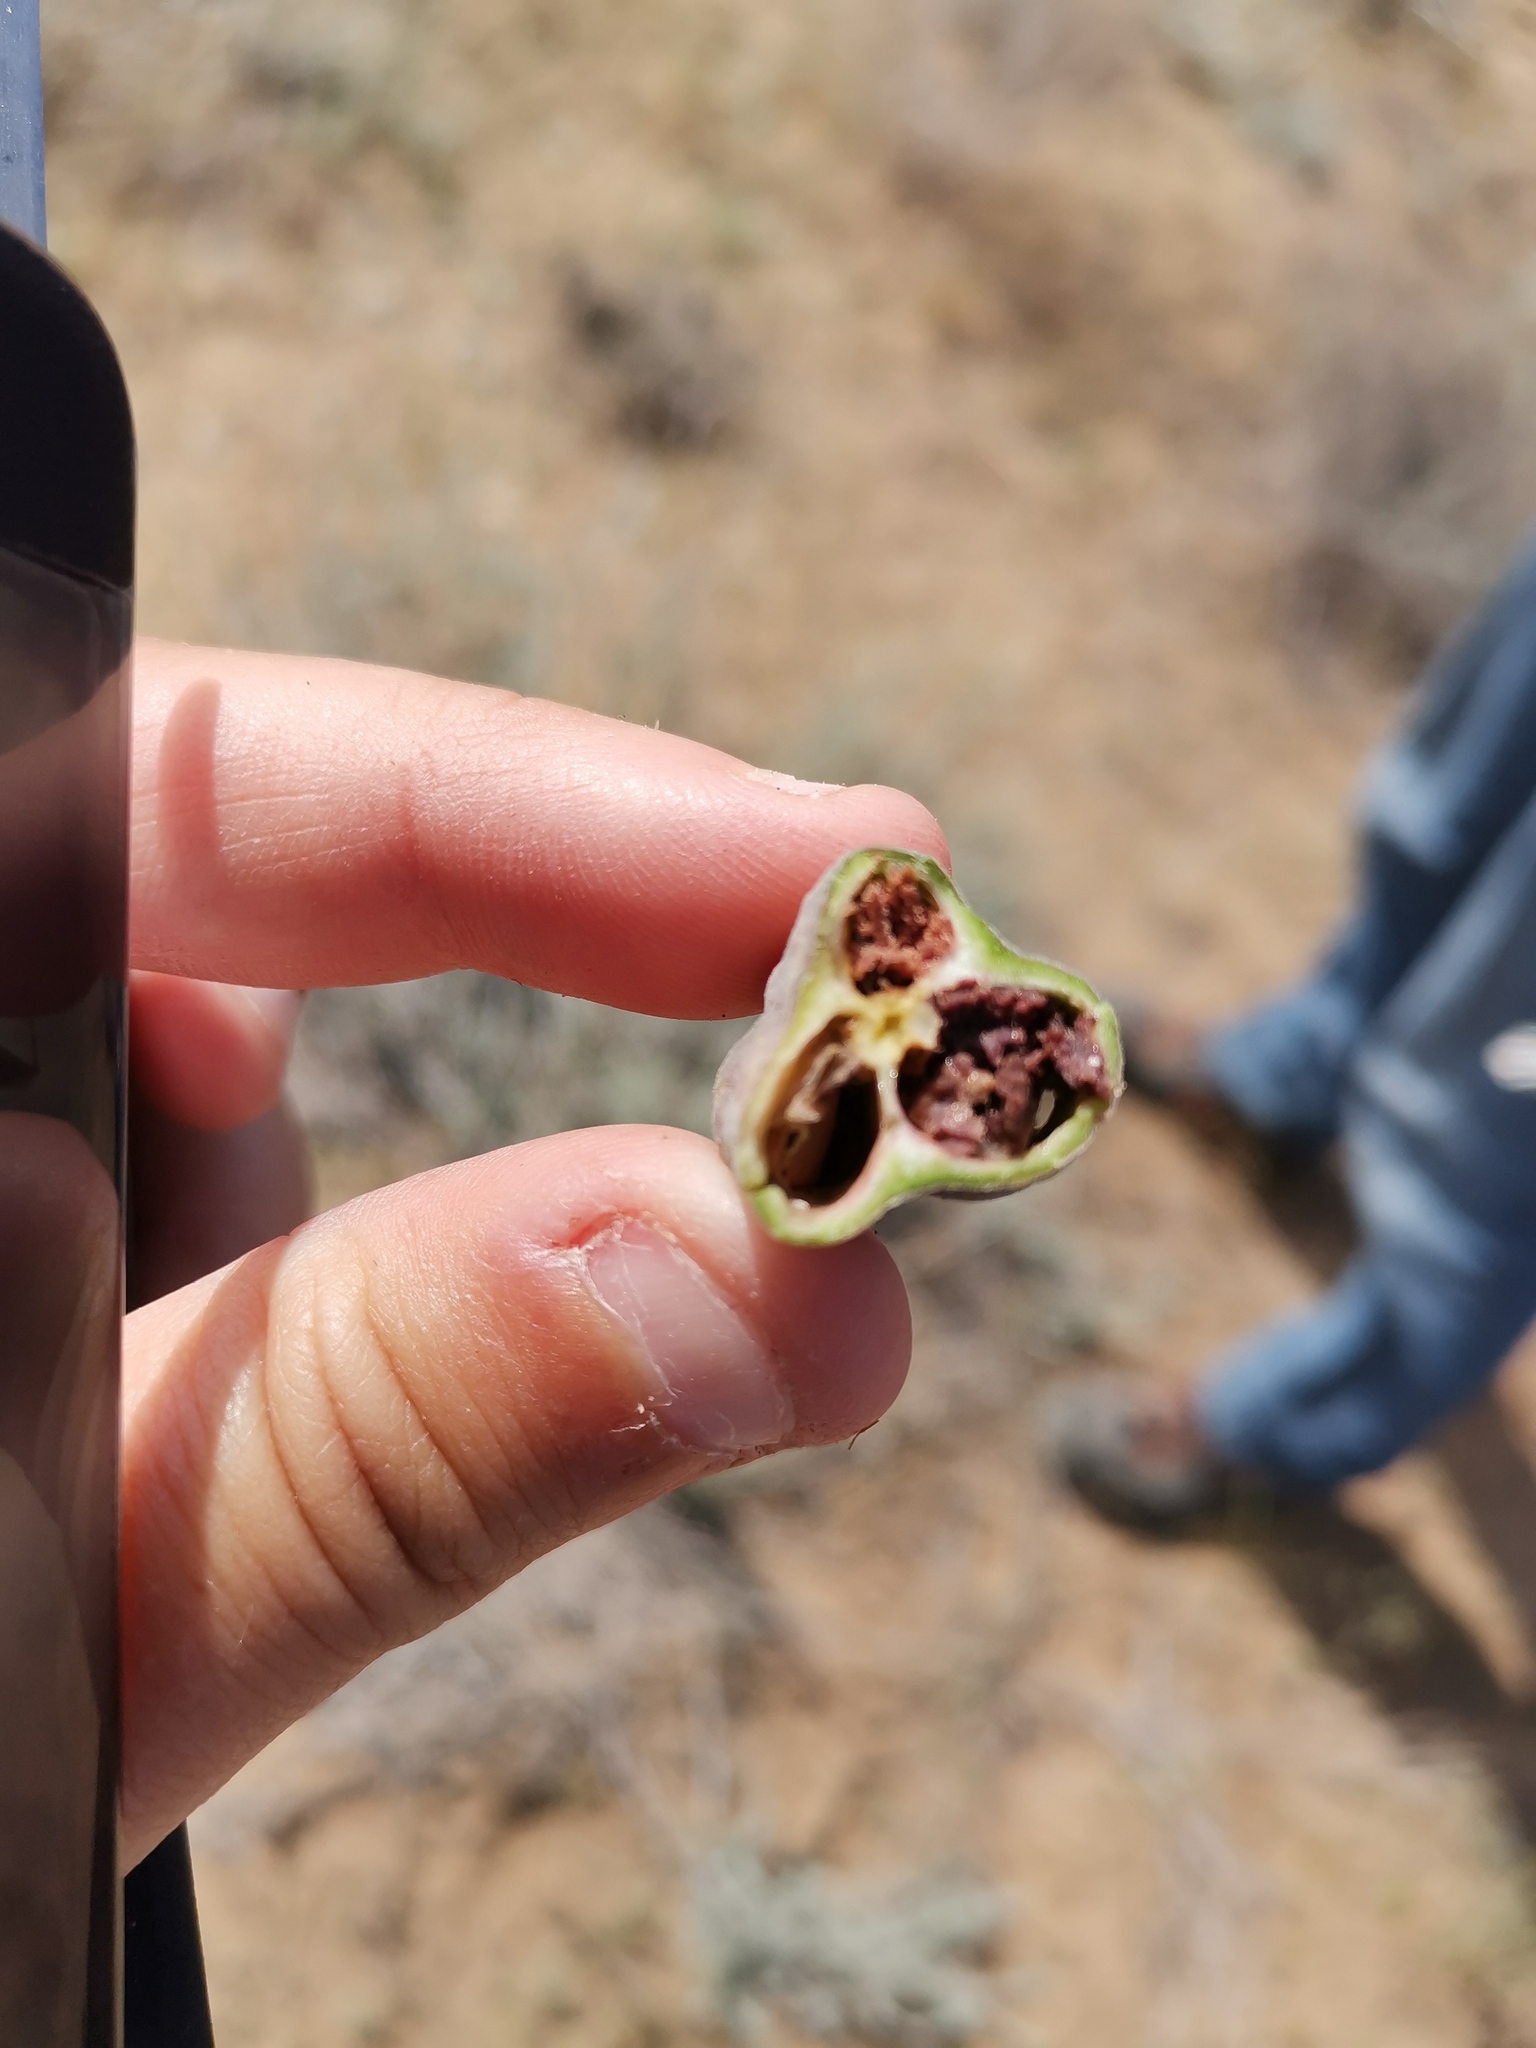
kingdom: Plantae
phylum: Tracheophyta
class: Liliopsida
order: Asparagales
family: Iridaceae
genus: Iris
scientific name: Iris tenuifolia
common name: Slender-leaf iris
